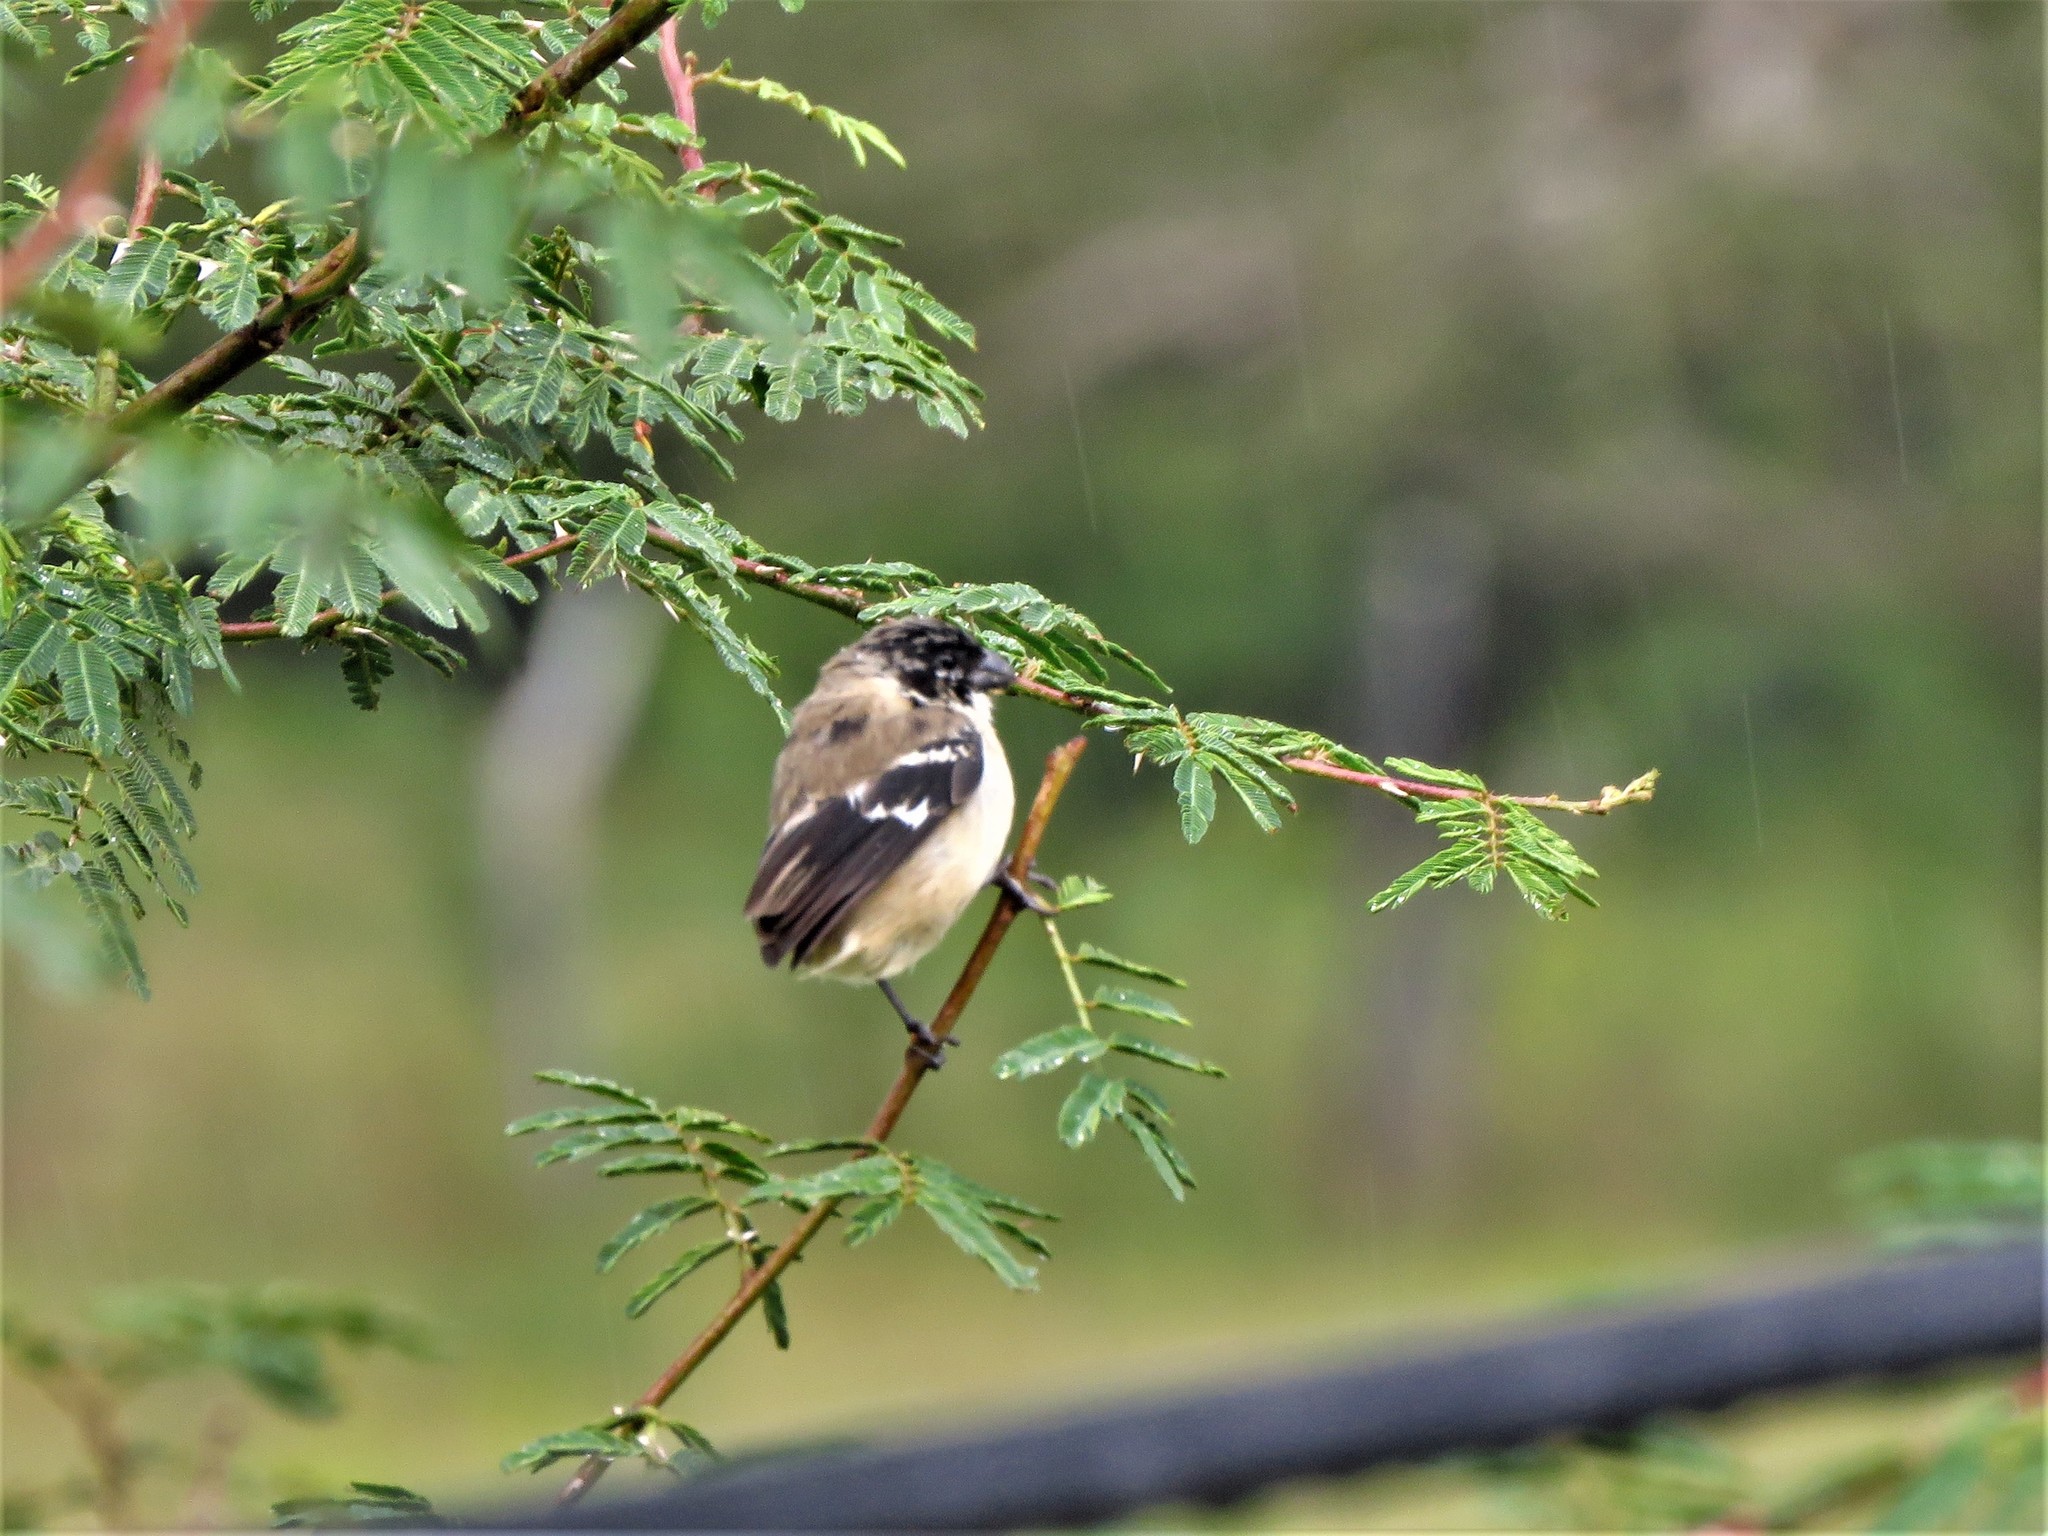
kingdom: Animalia
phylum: Chordata
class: Aves
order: Passeriformes
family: Thraupidae
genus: Sporophila
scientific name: Sporophila morelleti
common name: Morelet's seedeater
